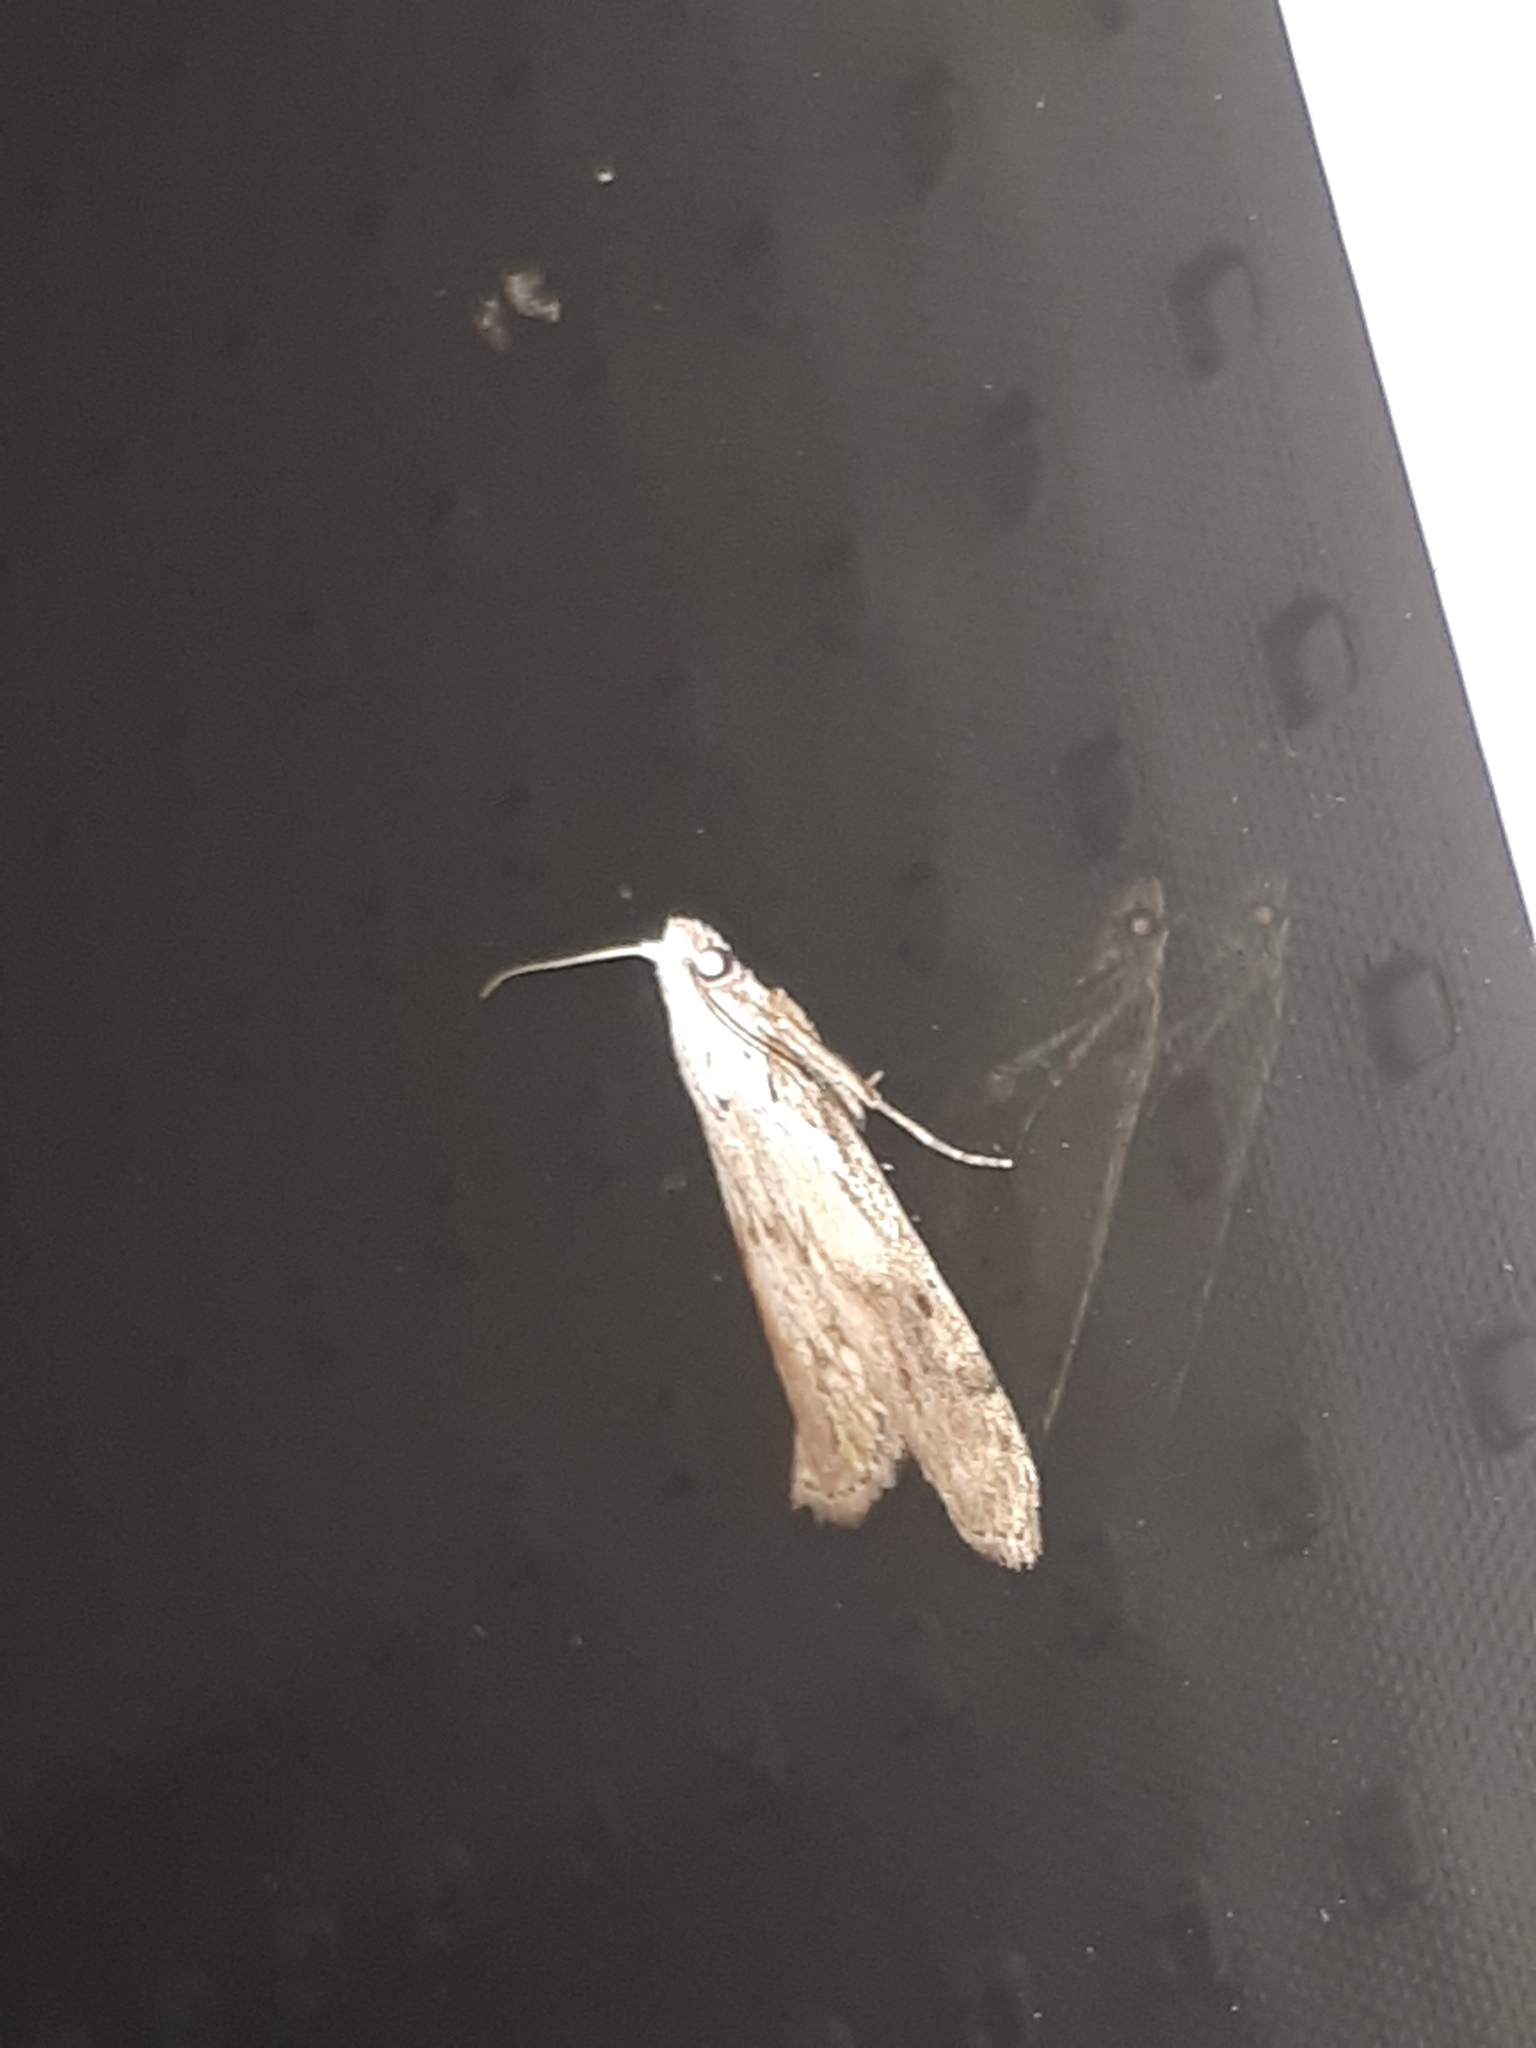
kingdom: Animalia
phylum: Arthropoda
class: Insecta
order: Lepidoptera
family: Pyralidae
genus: Aphomia
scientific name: Aphomia sociella
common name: Bee moth
